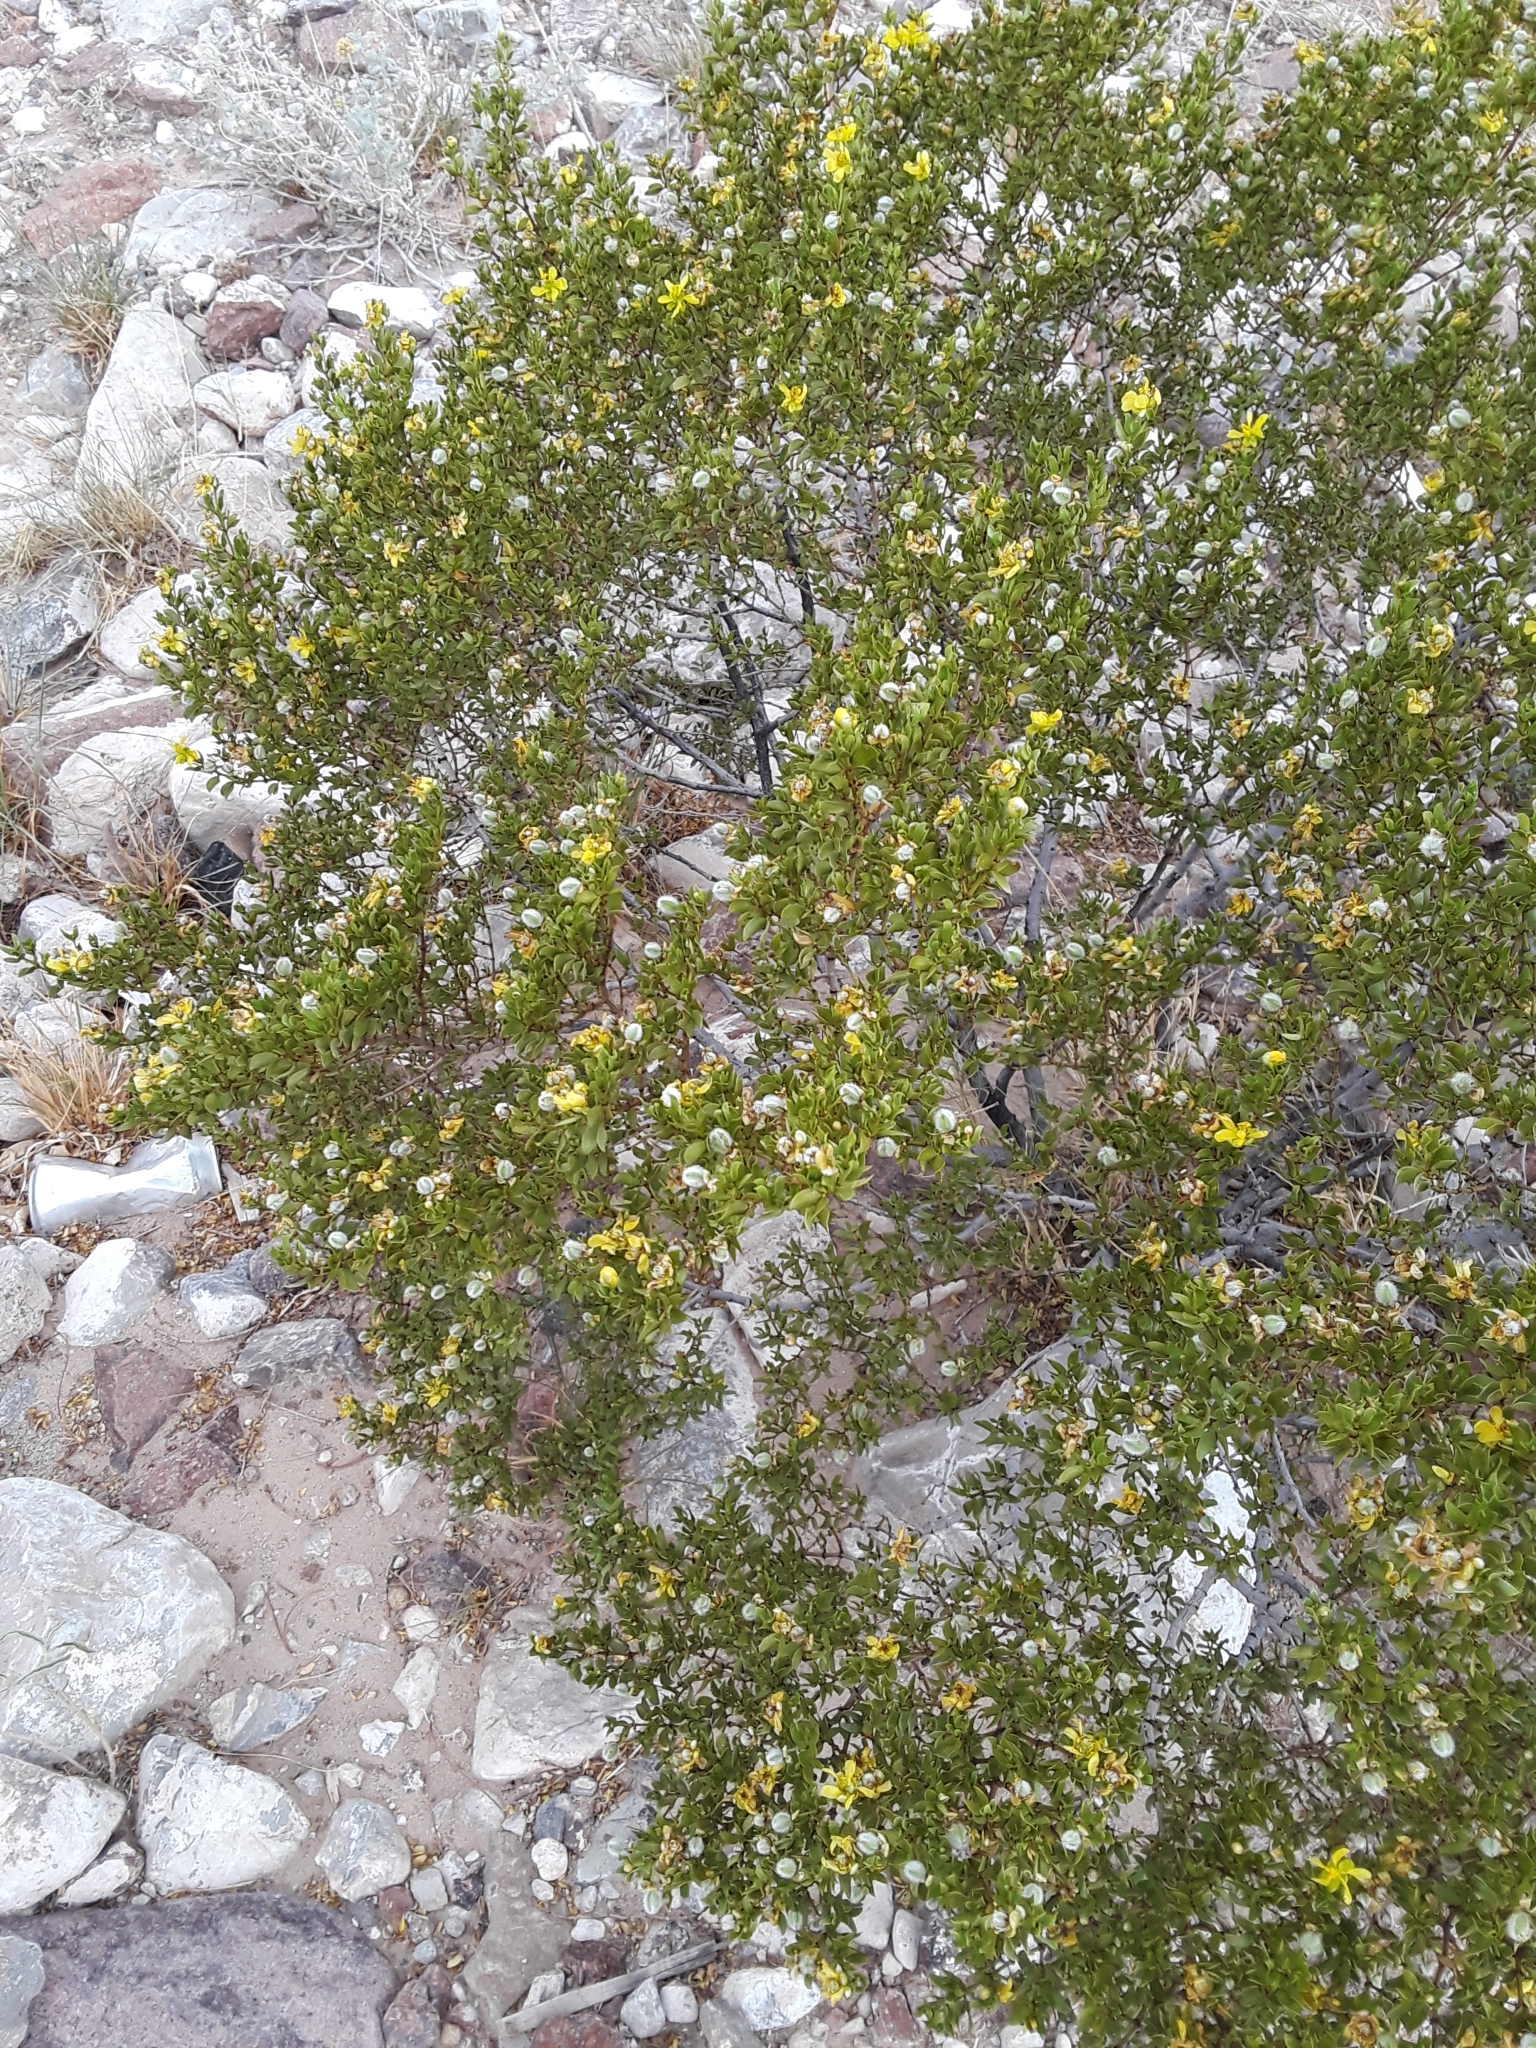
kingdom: Plantae
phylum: Tracheophyta
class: Magnoliopsida
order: Zygophyllales
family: Zygophyllaceae
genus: Larrea
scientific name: Larrea tridentata
